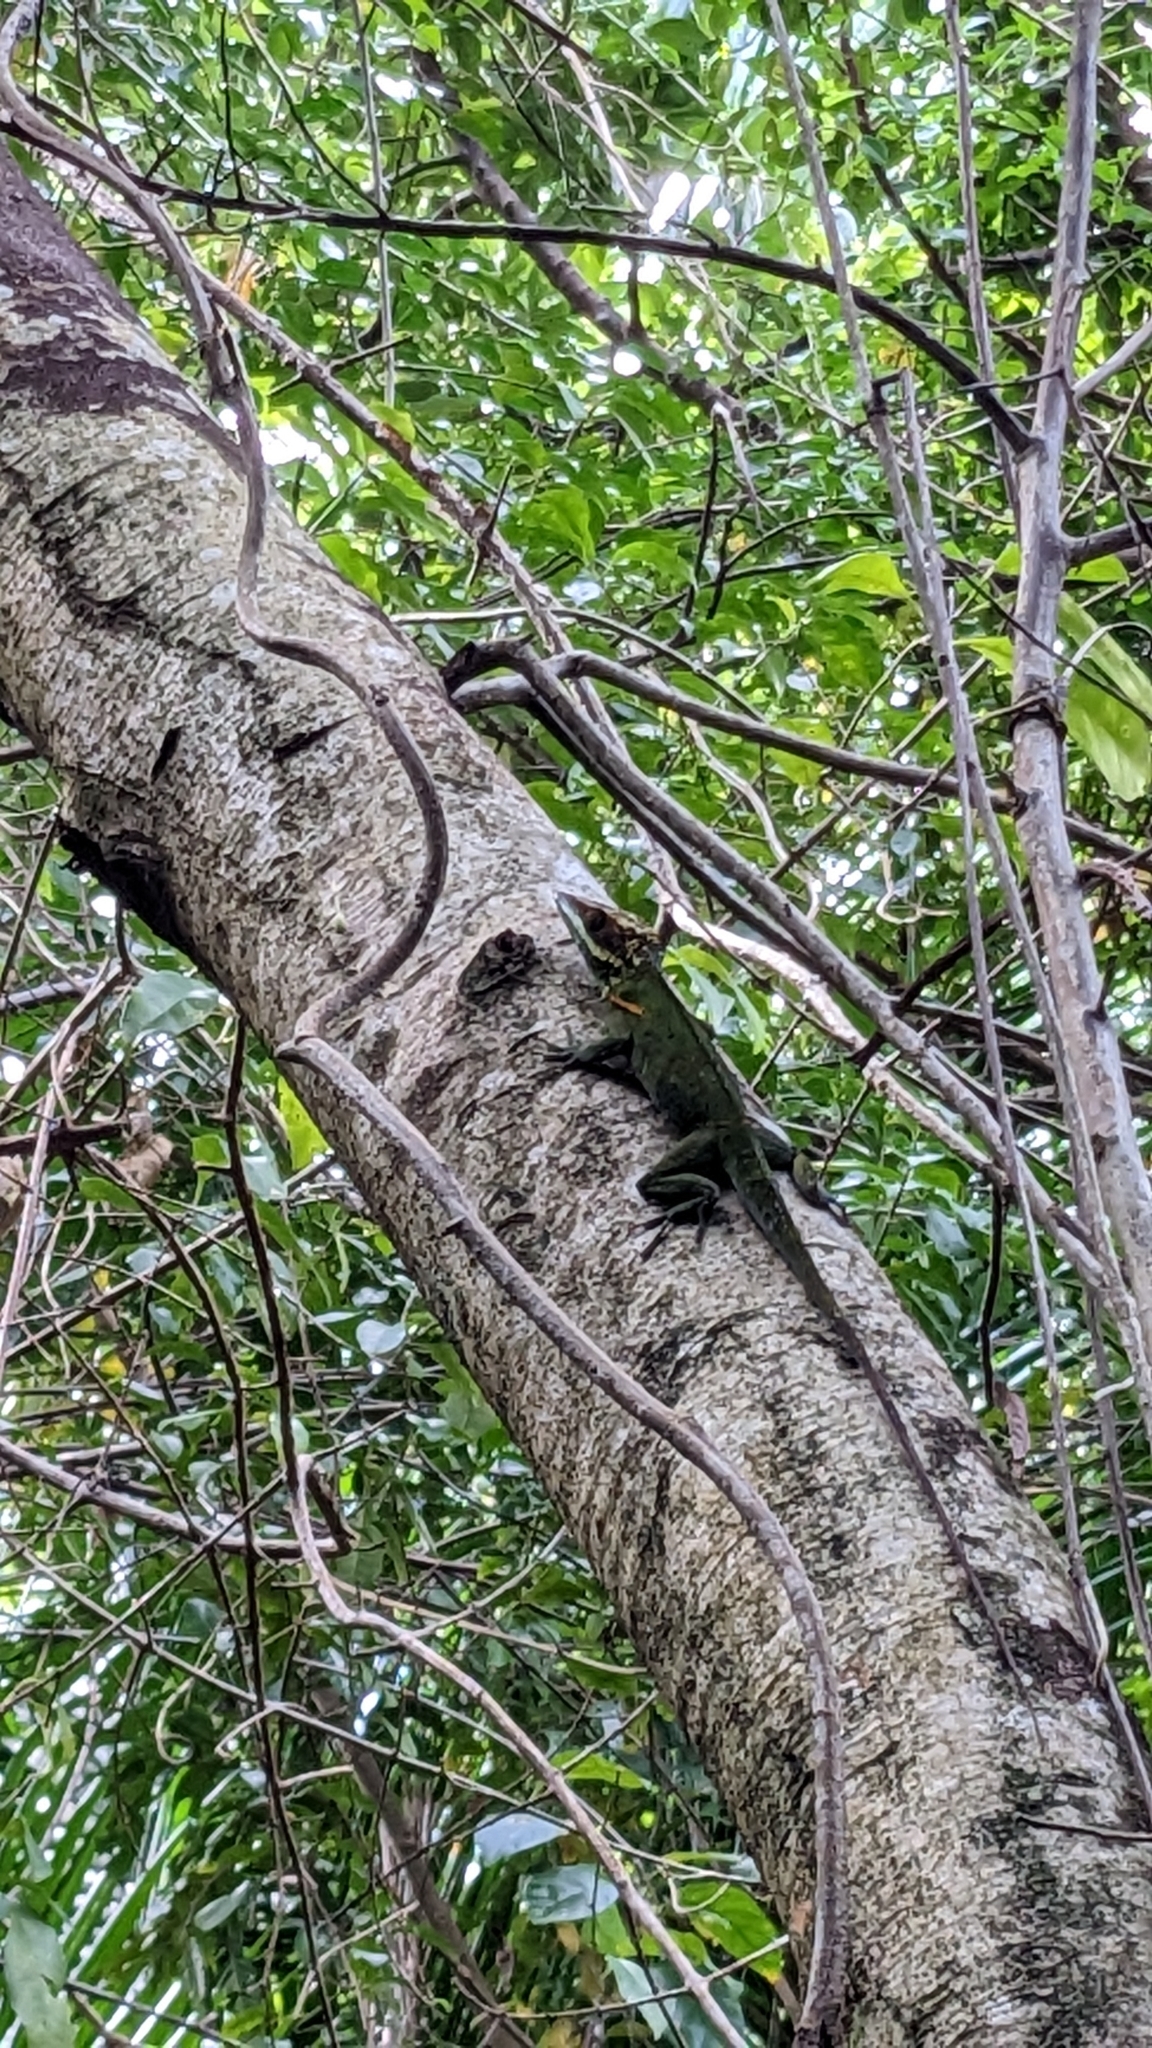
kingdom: Animalia
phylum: Chordata
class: Squamata
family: Dactyloidae
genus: Anolis
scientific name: Anolis smallwoodi
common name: Smallwood's anole
